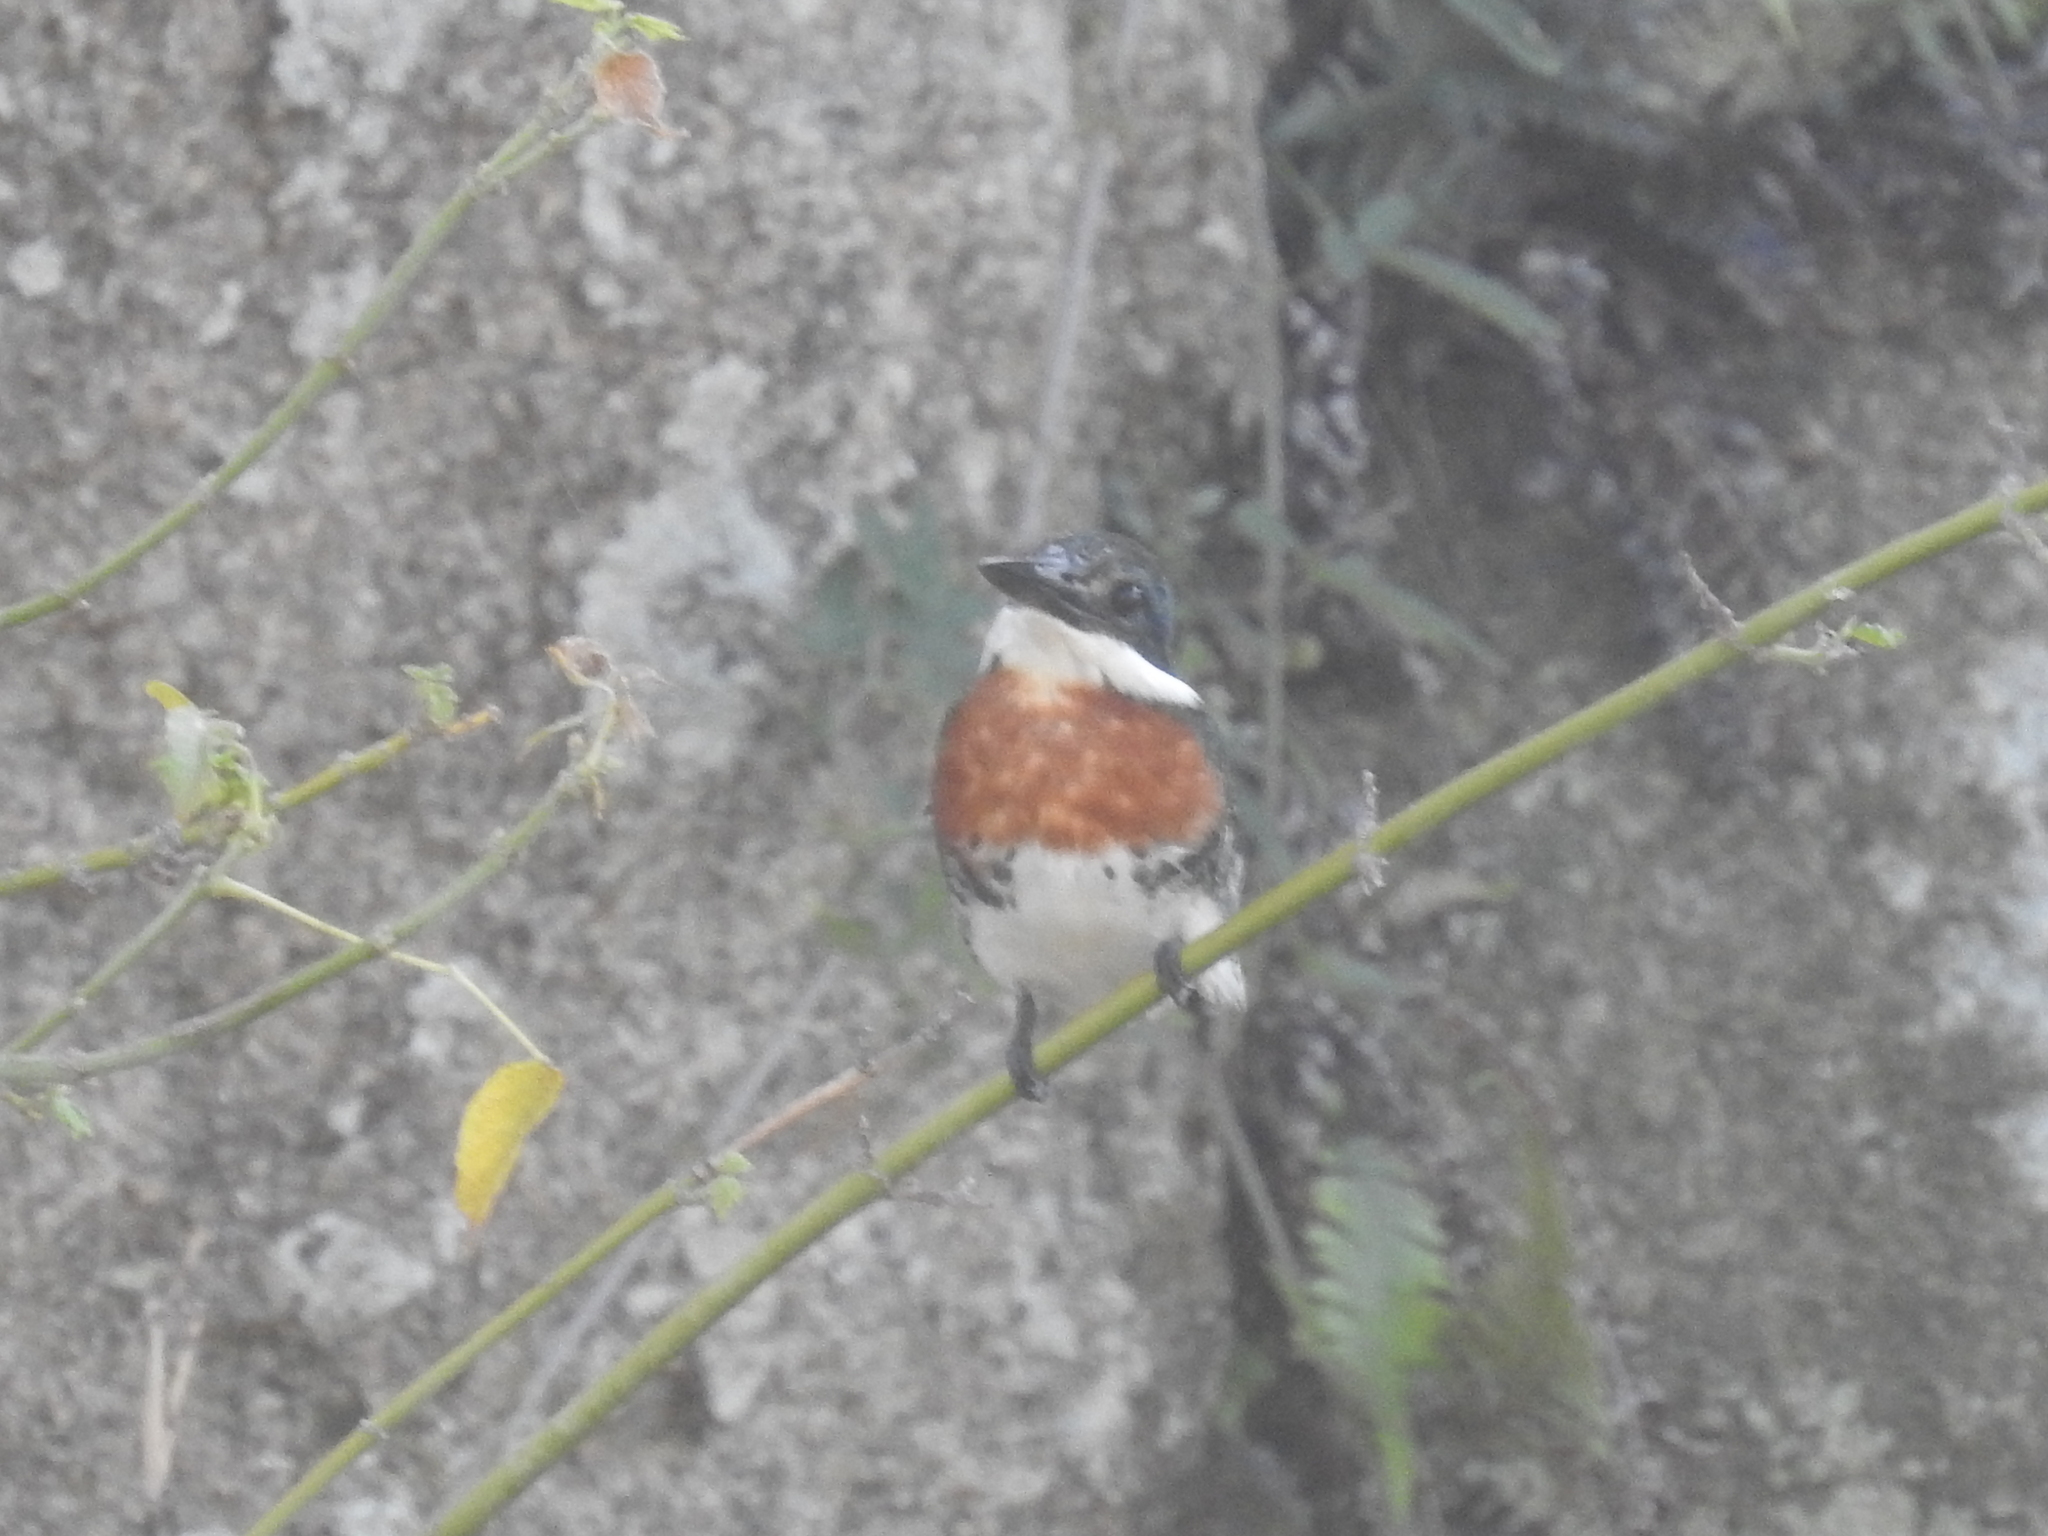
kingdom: Animalia
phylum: Chordata
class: Aves
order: Coraciiformes
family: Alcedinidae
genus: Chloroceryle
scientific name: Chloroceryle americana
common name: Green kingfisher
